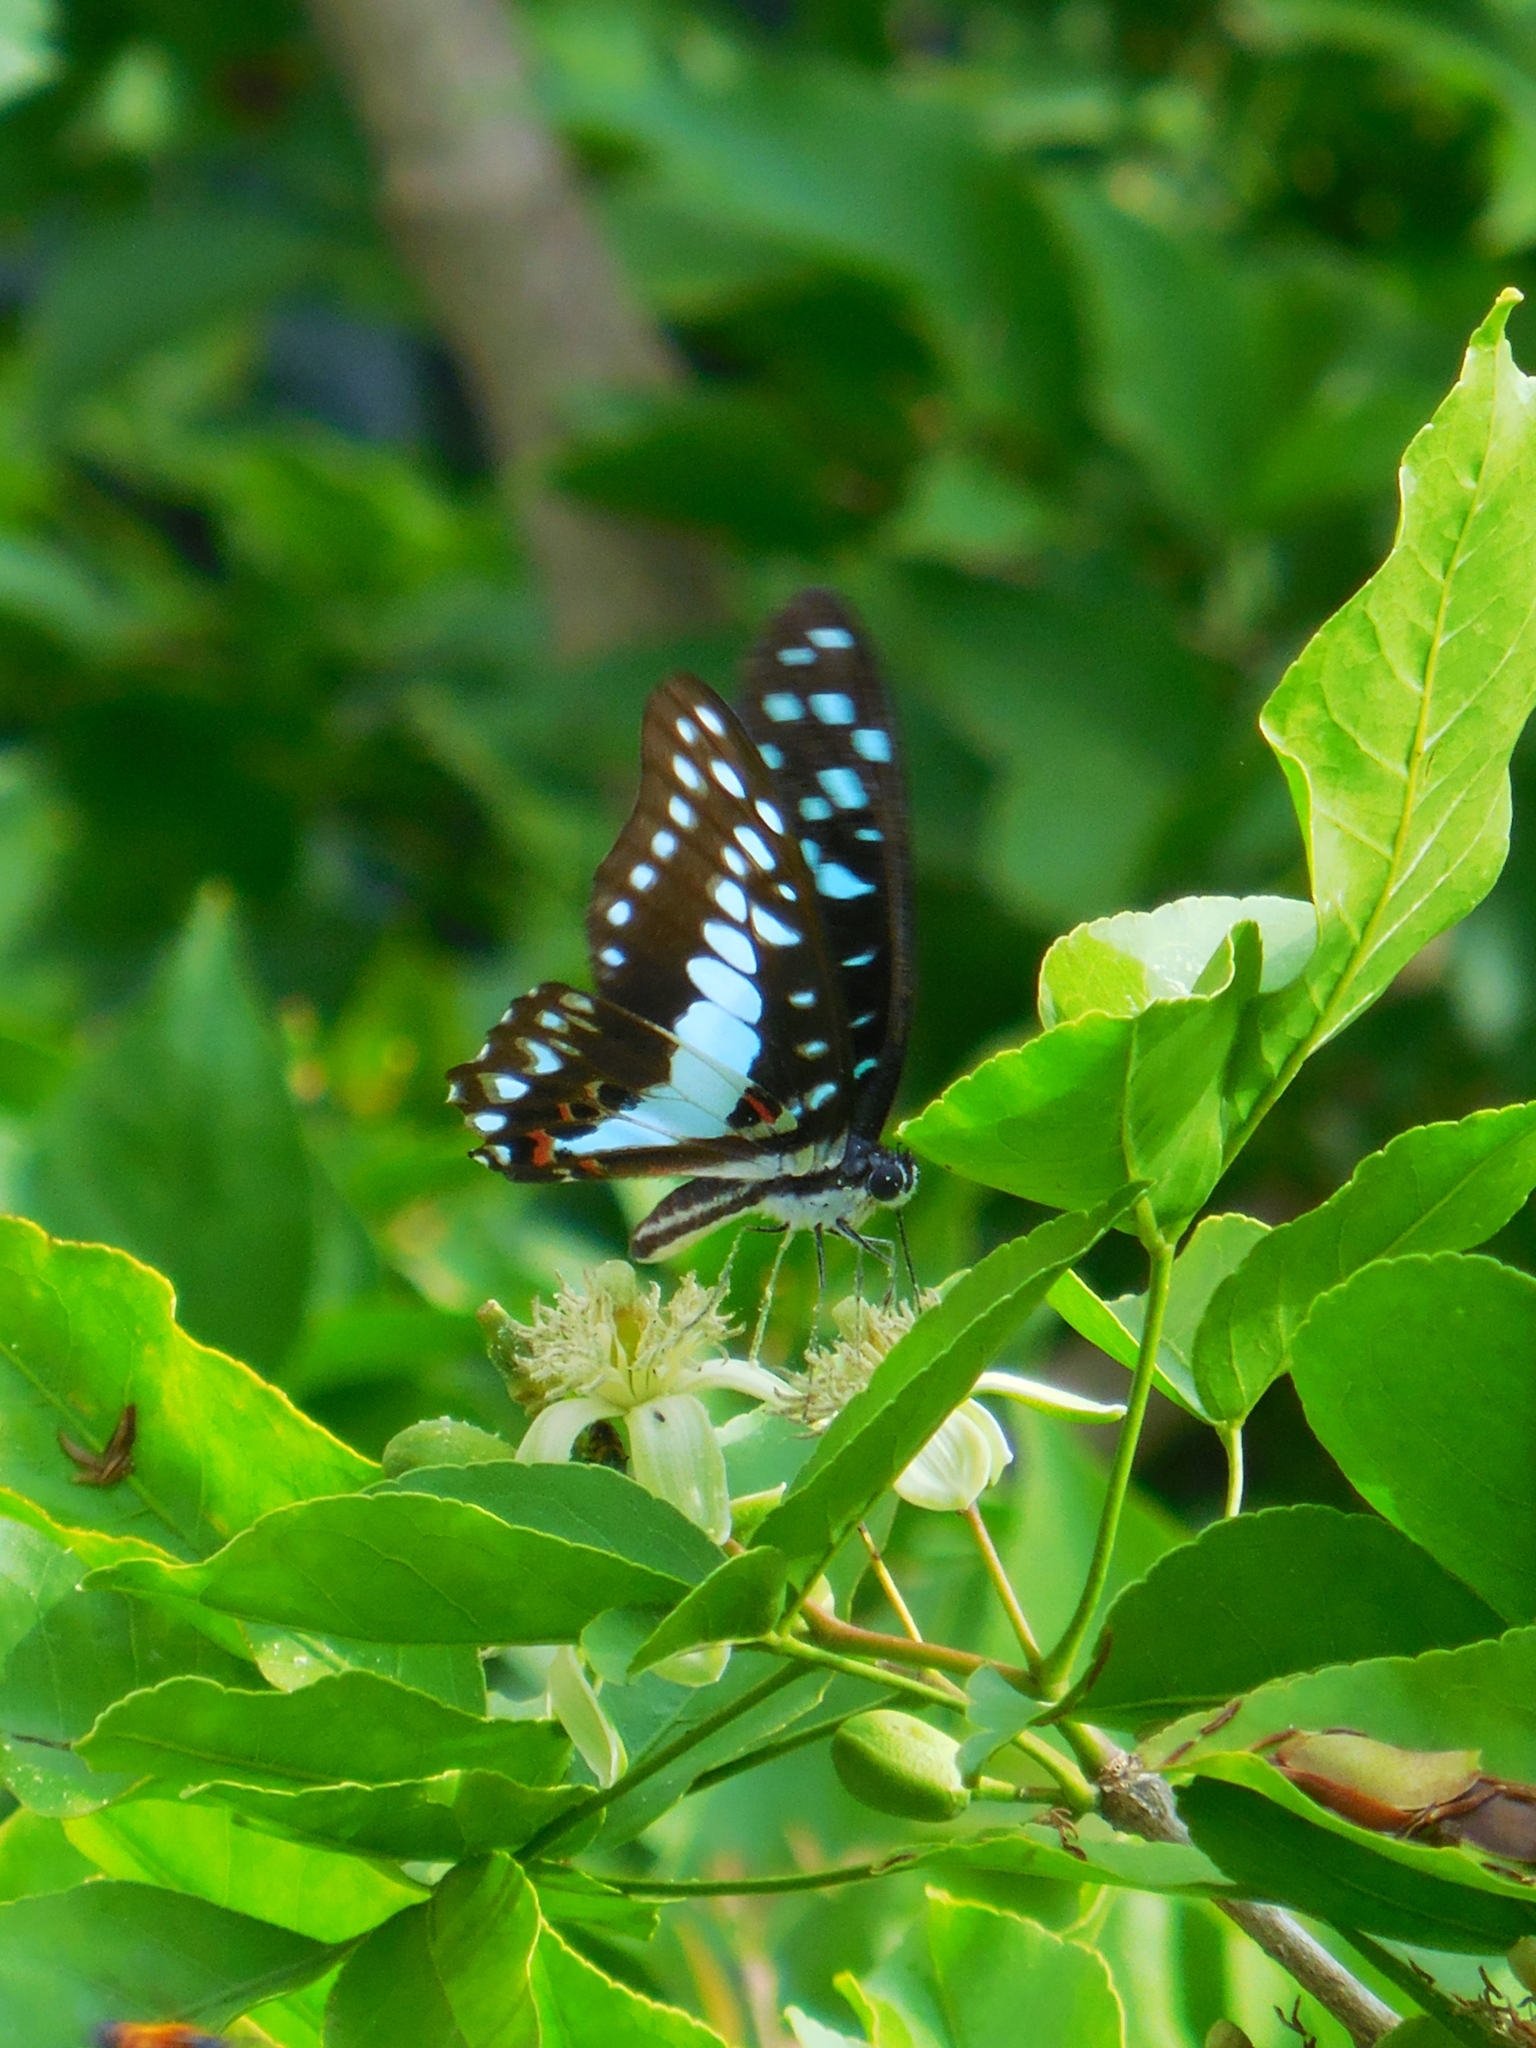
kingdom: Animalia
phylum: Arthropoda
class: Insecta
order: Lepidoptera
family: Papilionidae
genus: Graphium
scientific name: Graphium doson
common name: Common jay
